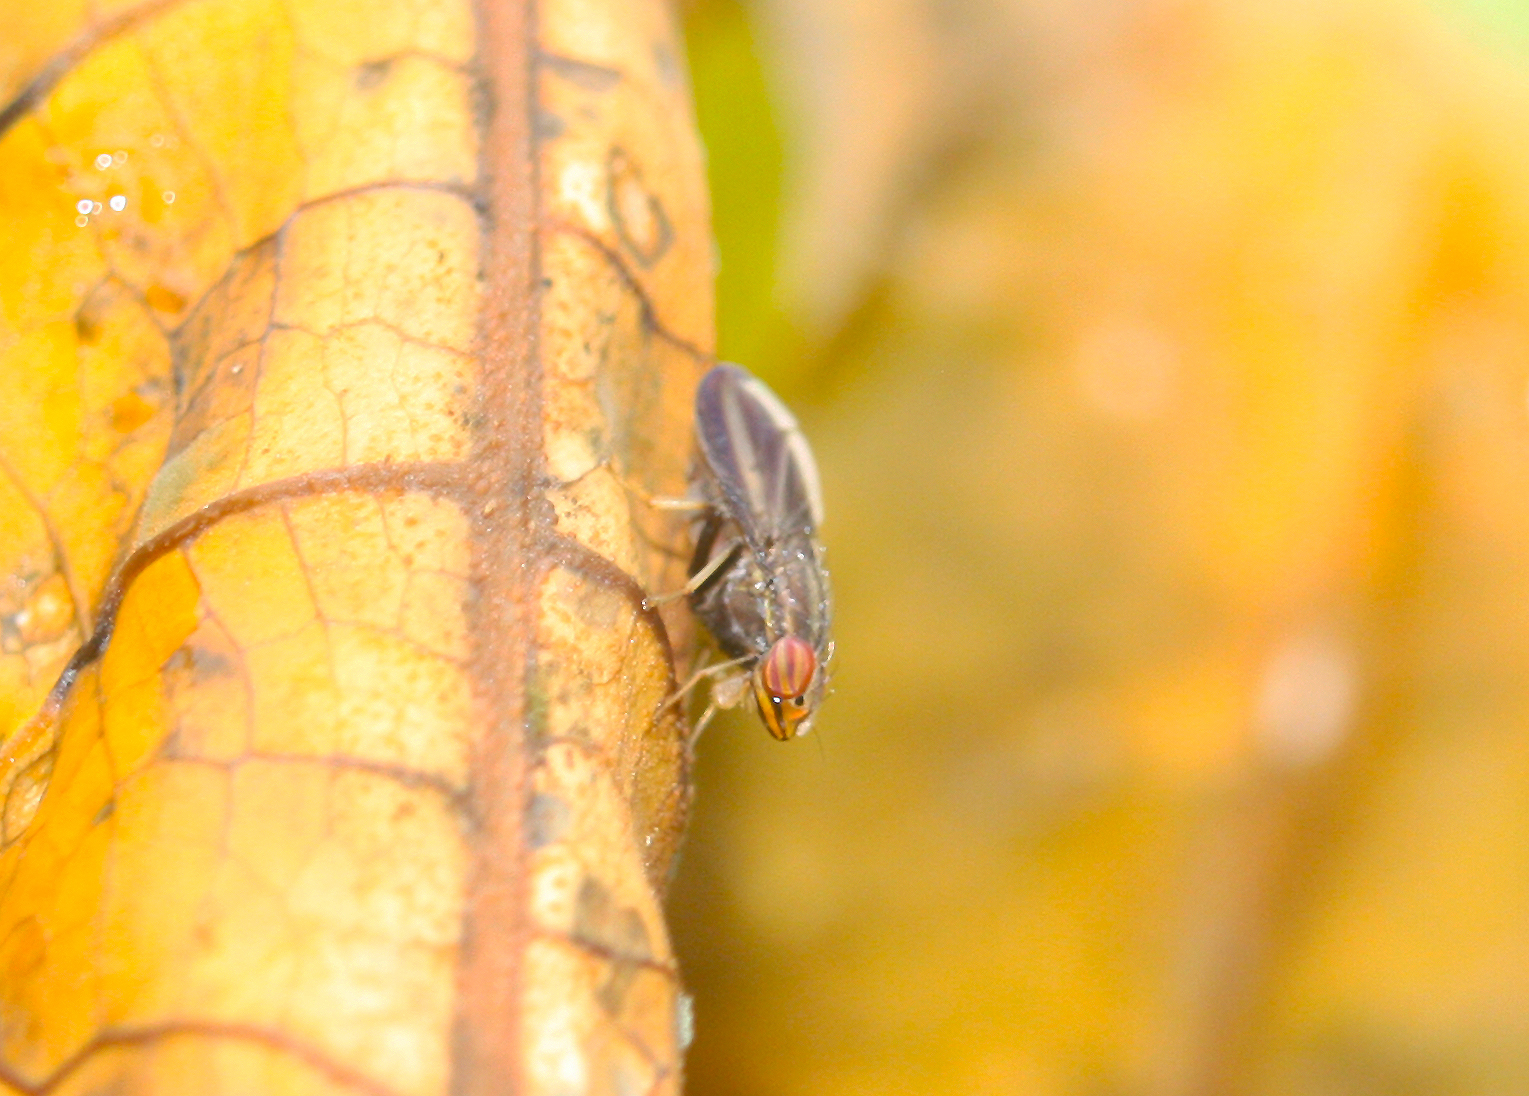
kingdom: Animalia
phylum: Arthropoda
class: Insecta
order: Diptera
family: Lauxaniidae
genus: Cephaloconus
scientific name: Cephaloconus cyprinus
